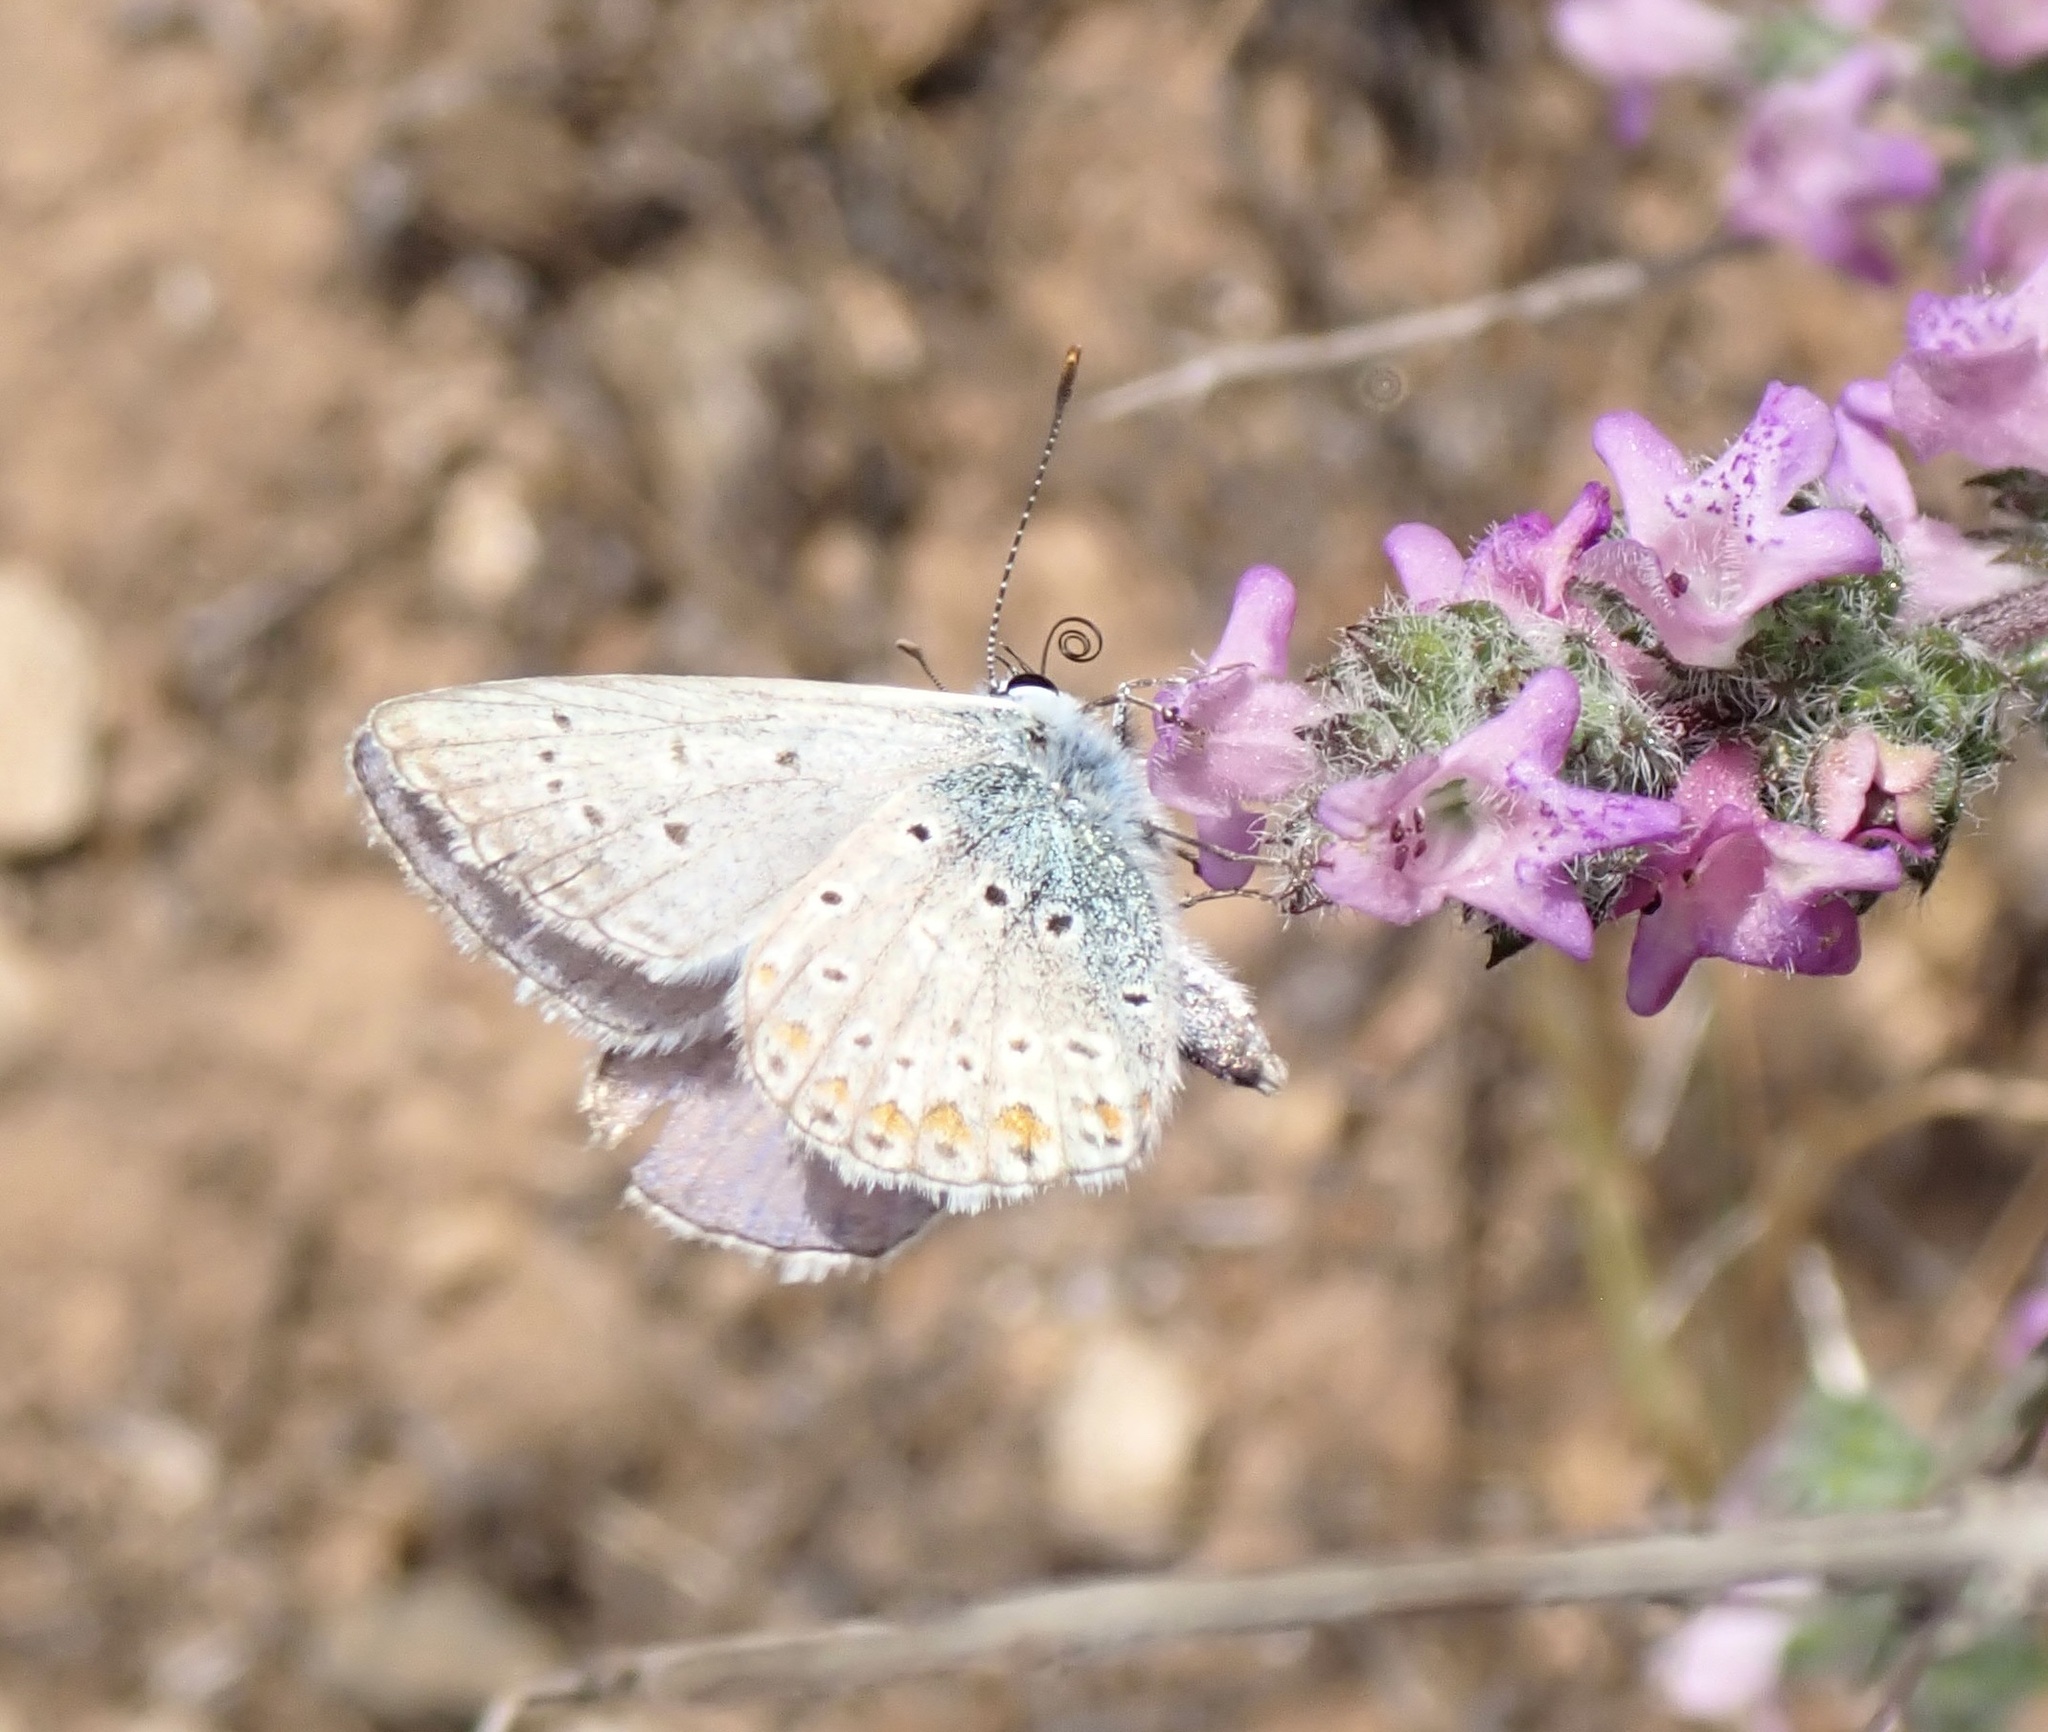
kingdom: Animalia
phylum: Arthropoda
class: Insecta
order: Lepidoptera
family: Lycaenidae
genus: Polyommatus
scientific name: Polyommatus icarus
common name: Common blue
